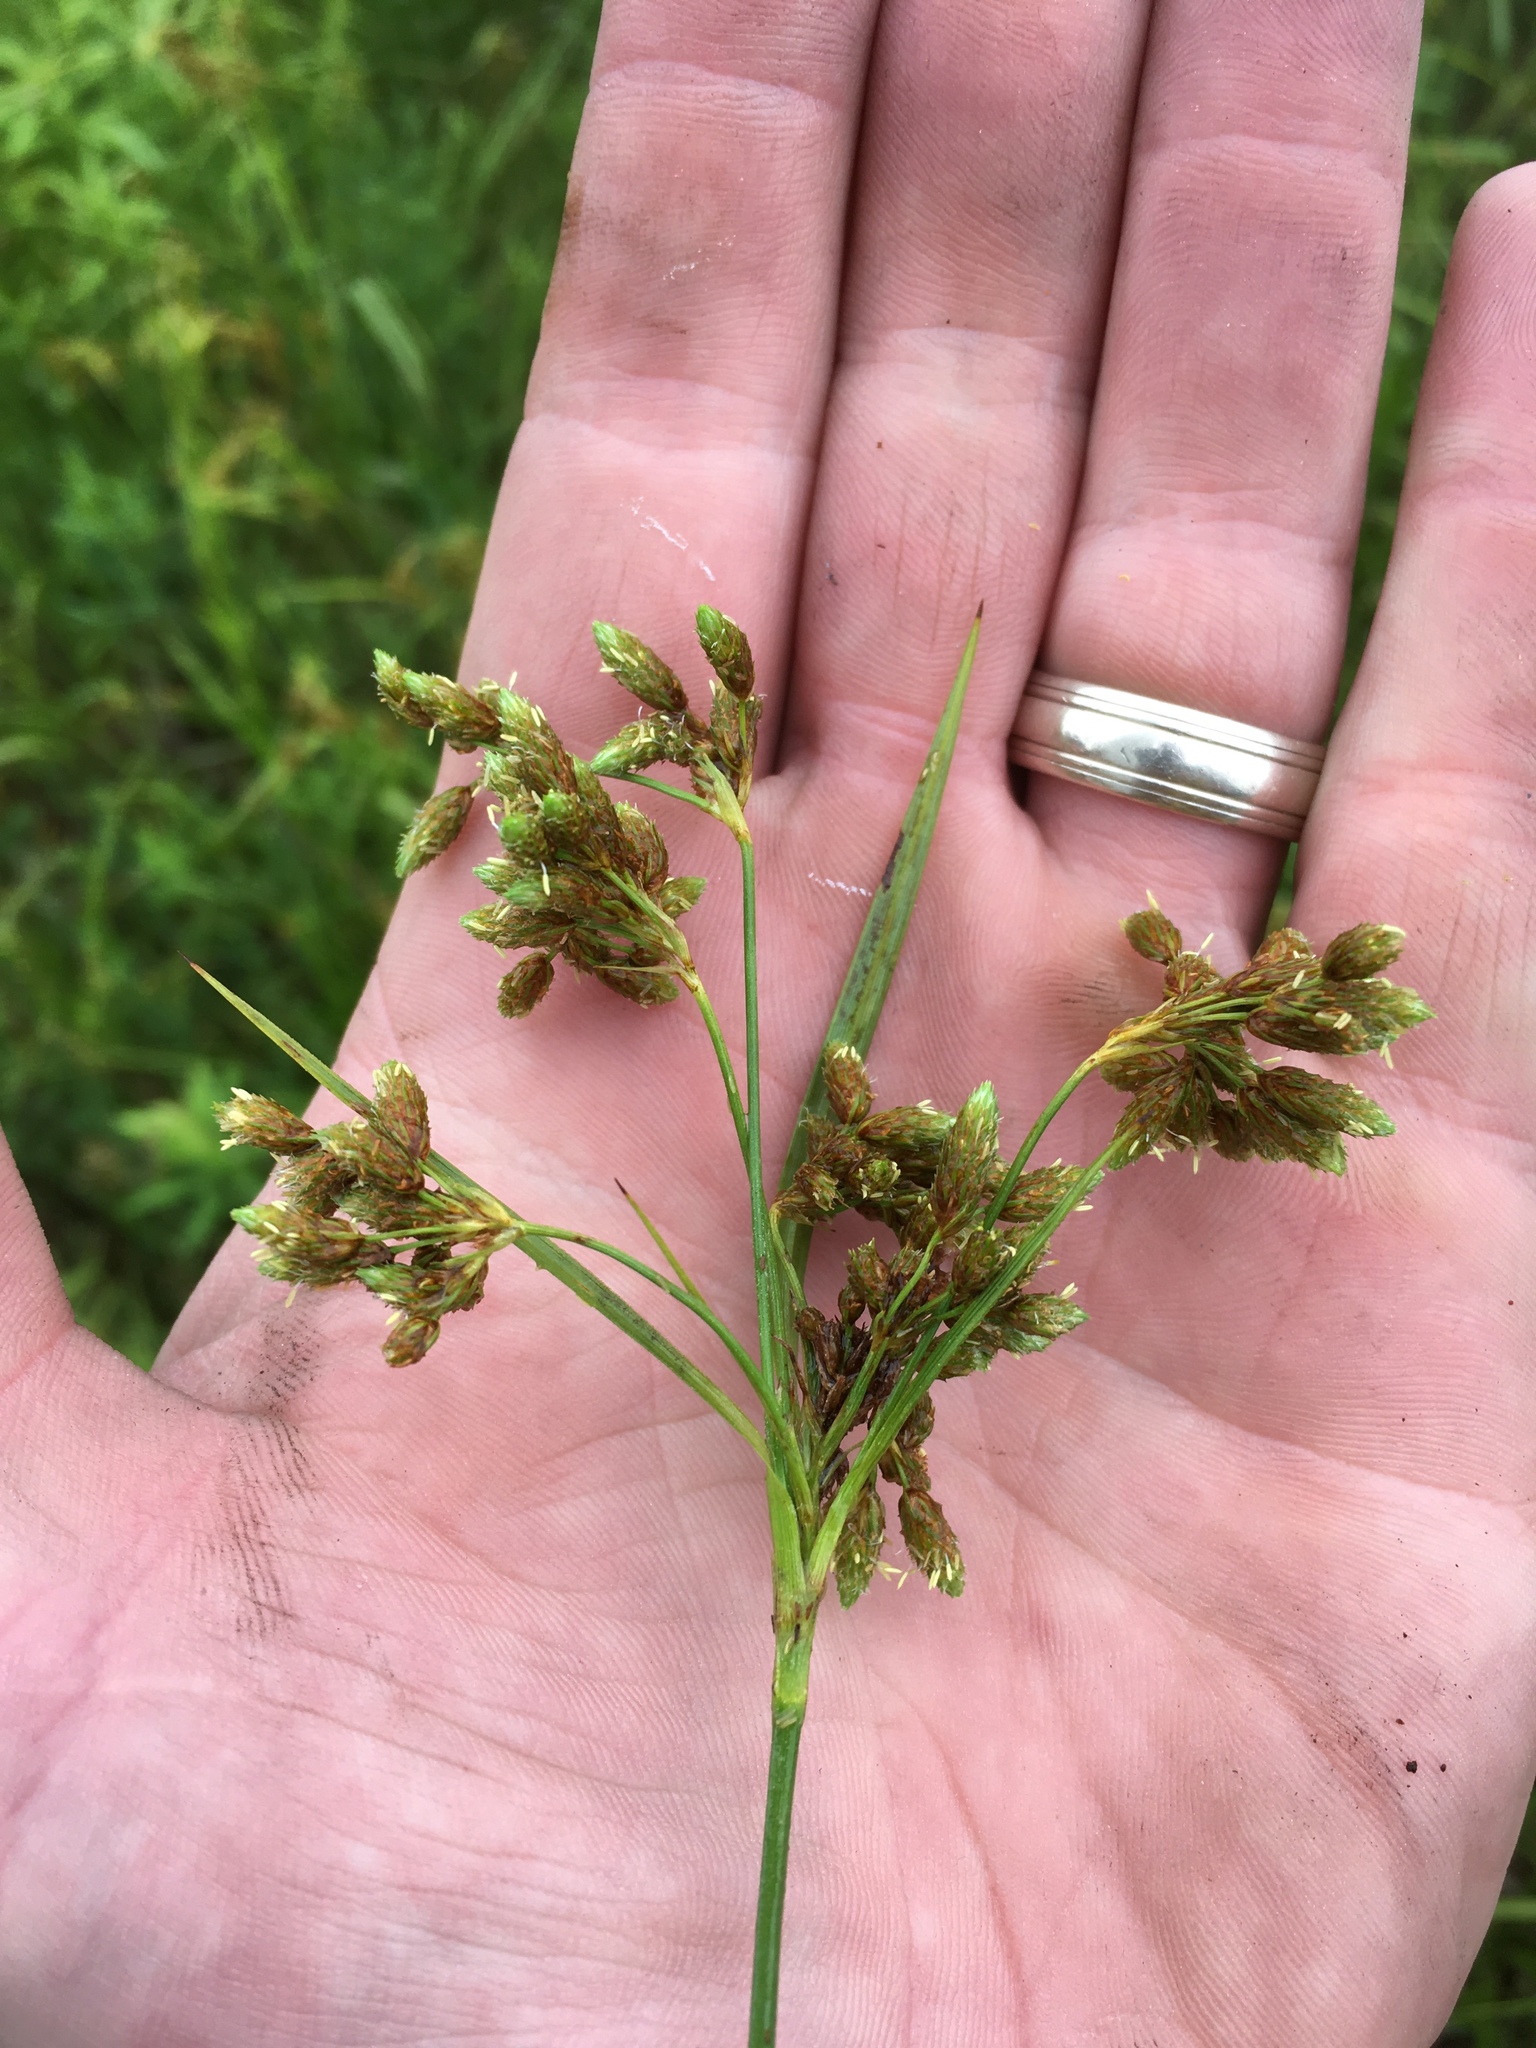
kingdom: Plantae
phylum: Tracheophyta
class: Liliopsida
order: Poales
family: Cyperaceae
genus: Scirpus
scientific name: Scirpus pendulus
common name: Nodding bulrush
